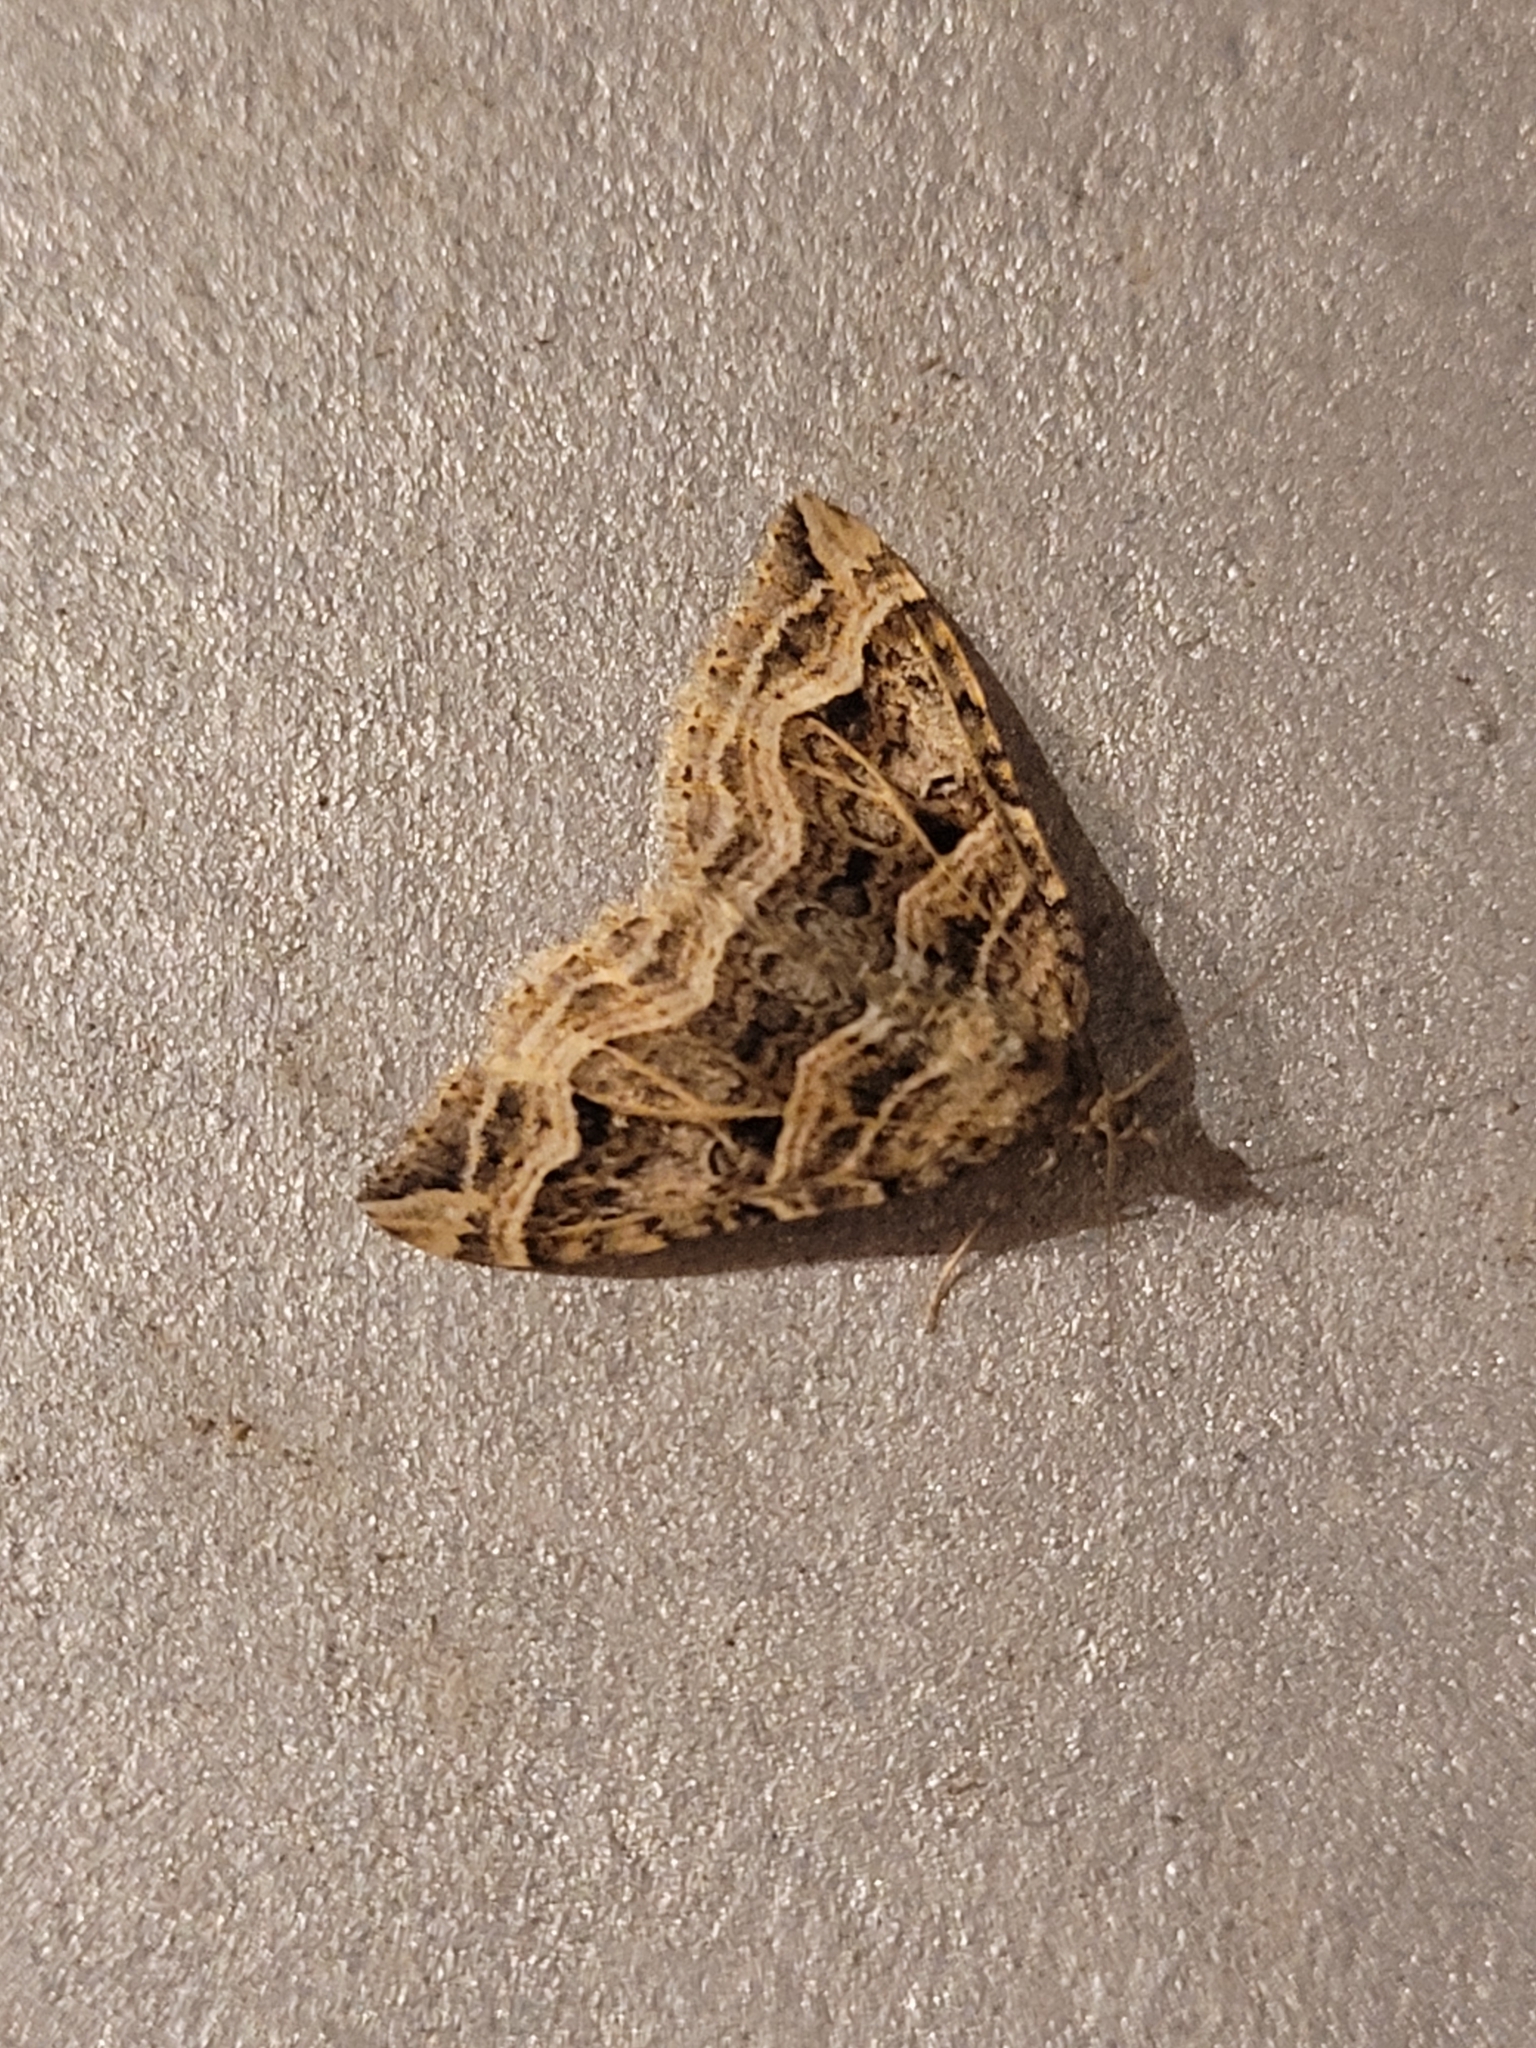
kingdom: Animalia
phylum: Arthropoda
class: Insecta
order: Lepidoptera
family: Geometridae
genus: Xanthorhoe
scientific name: Xanthorhoe semifissata
